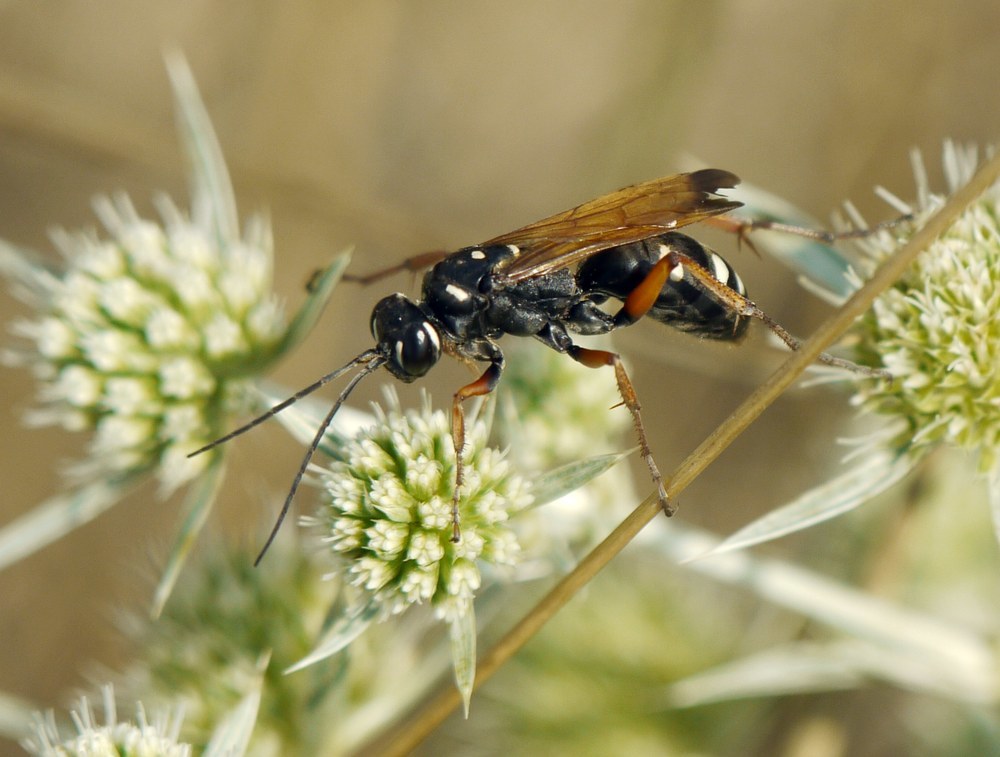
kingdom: Animalia
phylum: Arthropoda
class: Insecta
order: Hymenoptera
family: Pompilidae
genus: Cryptocheilus
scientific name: Cryptocheilus variabilis
